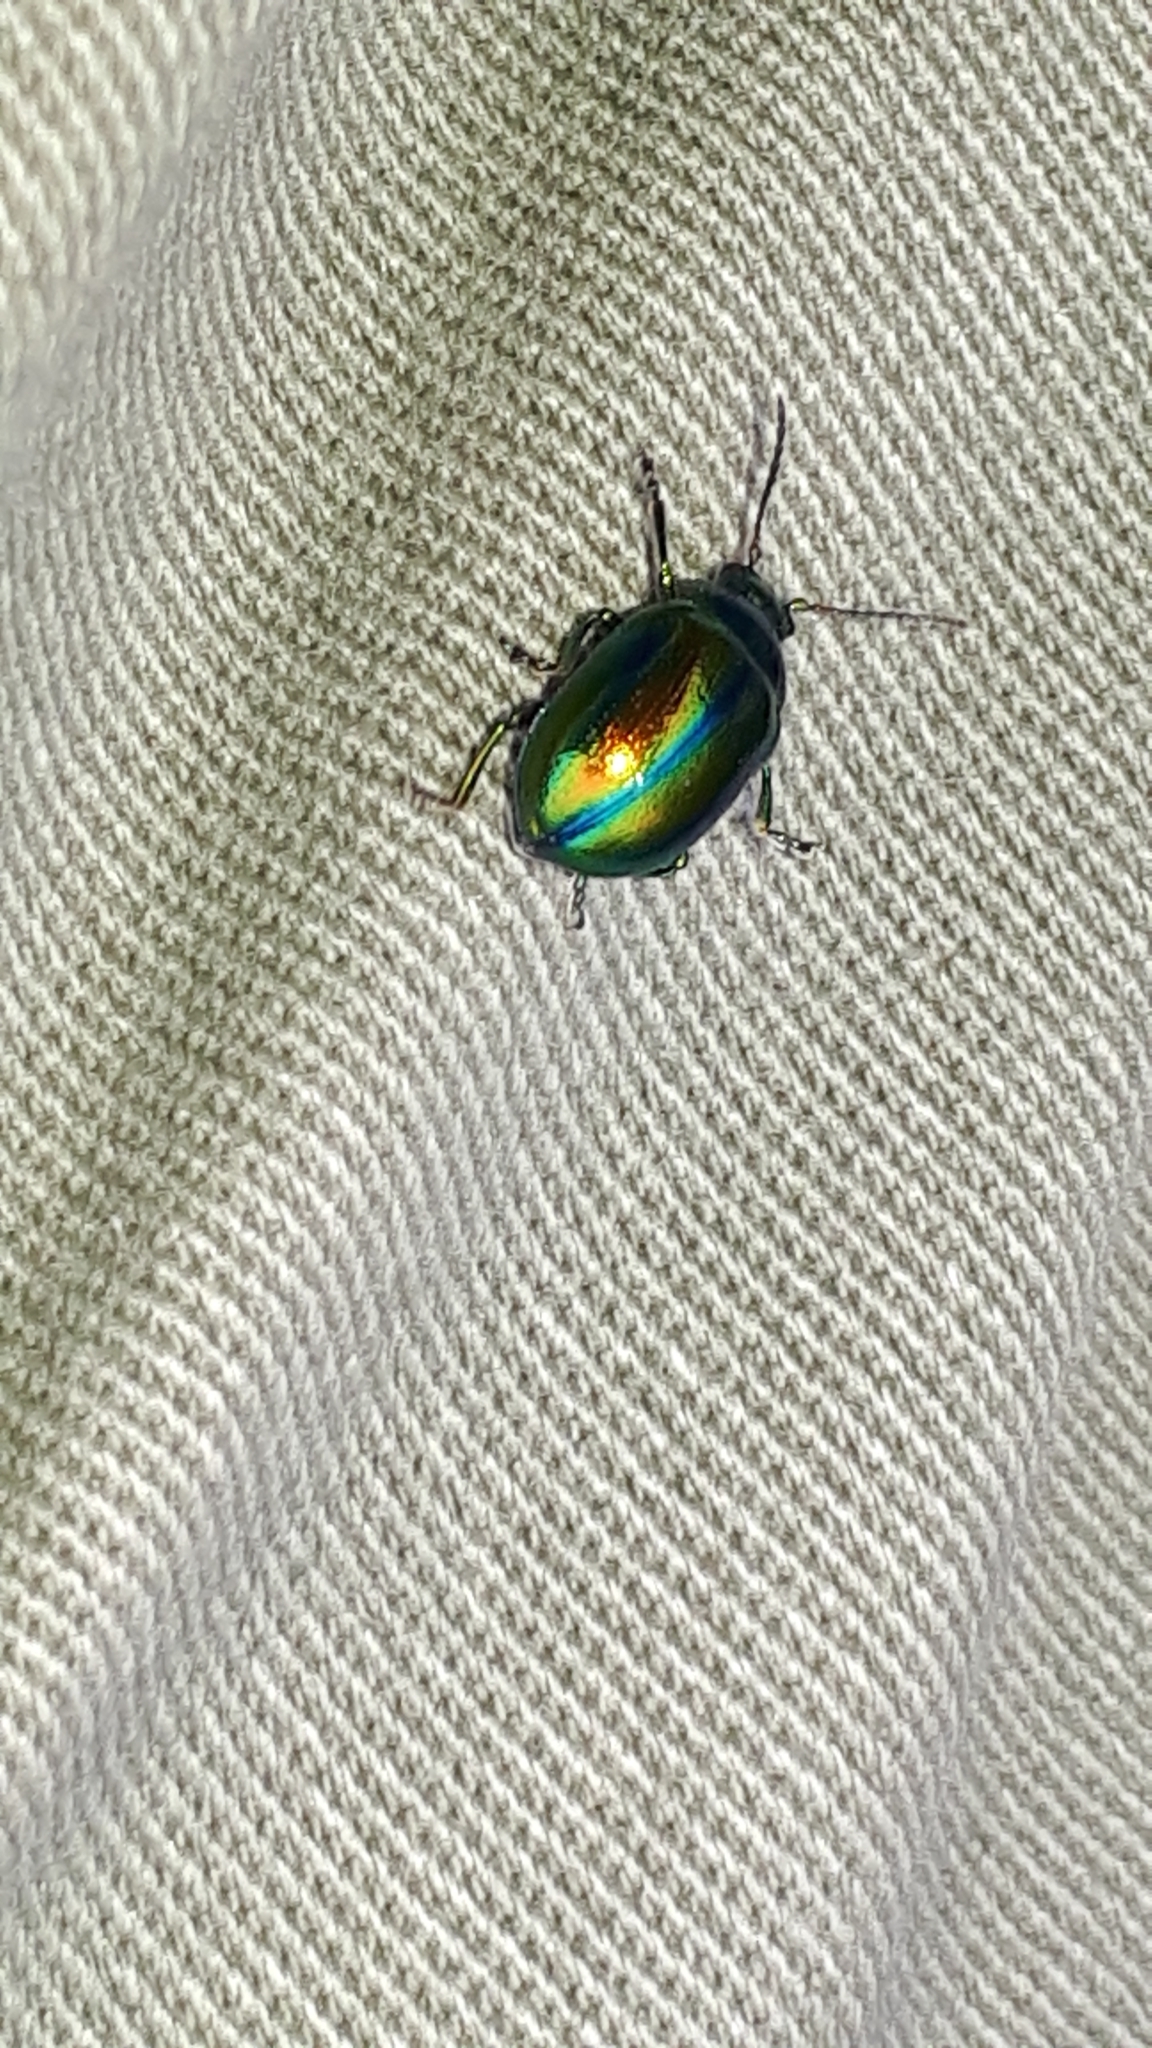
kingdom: Animalia
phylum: Arthropoda
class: Insecta
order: Coleoptera
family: Chrysomelidae
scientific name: Chrysomelidae
